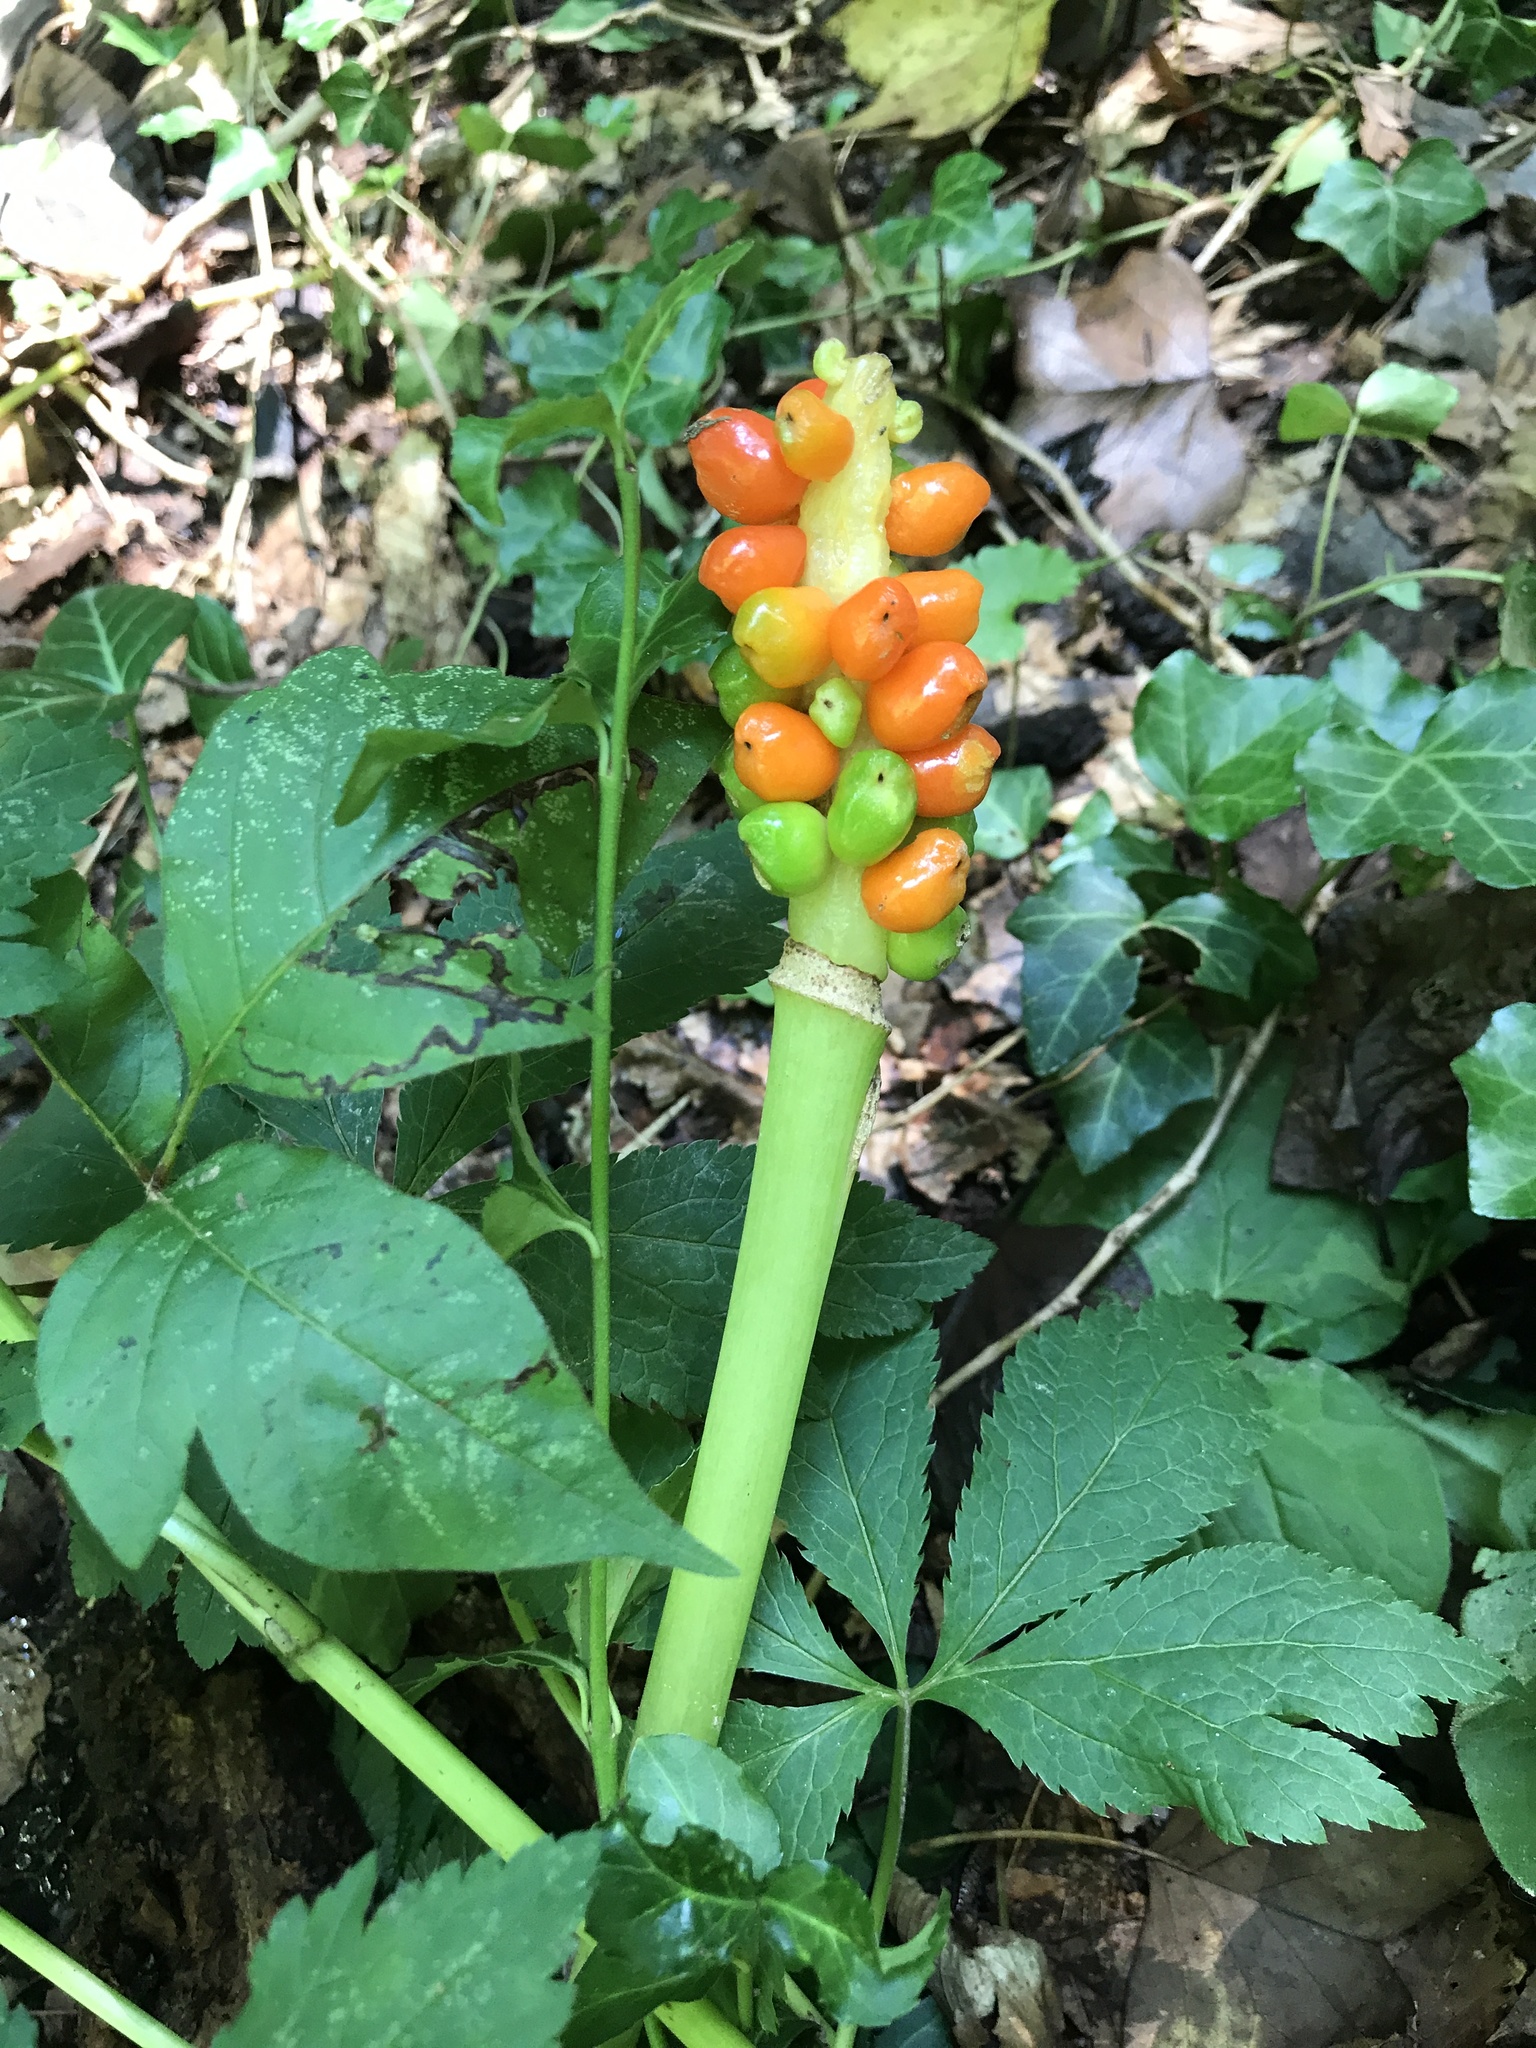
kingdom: Plantae
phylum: Tracheophyta
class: Liliopsida
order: Alismatales
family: Araceae
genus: Arum
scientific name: Arum italicum
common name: Italian lords-and-ladies
